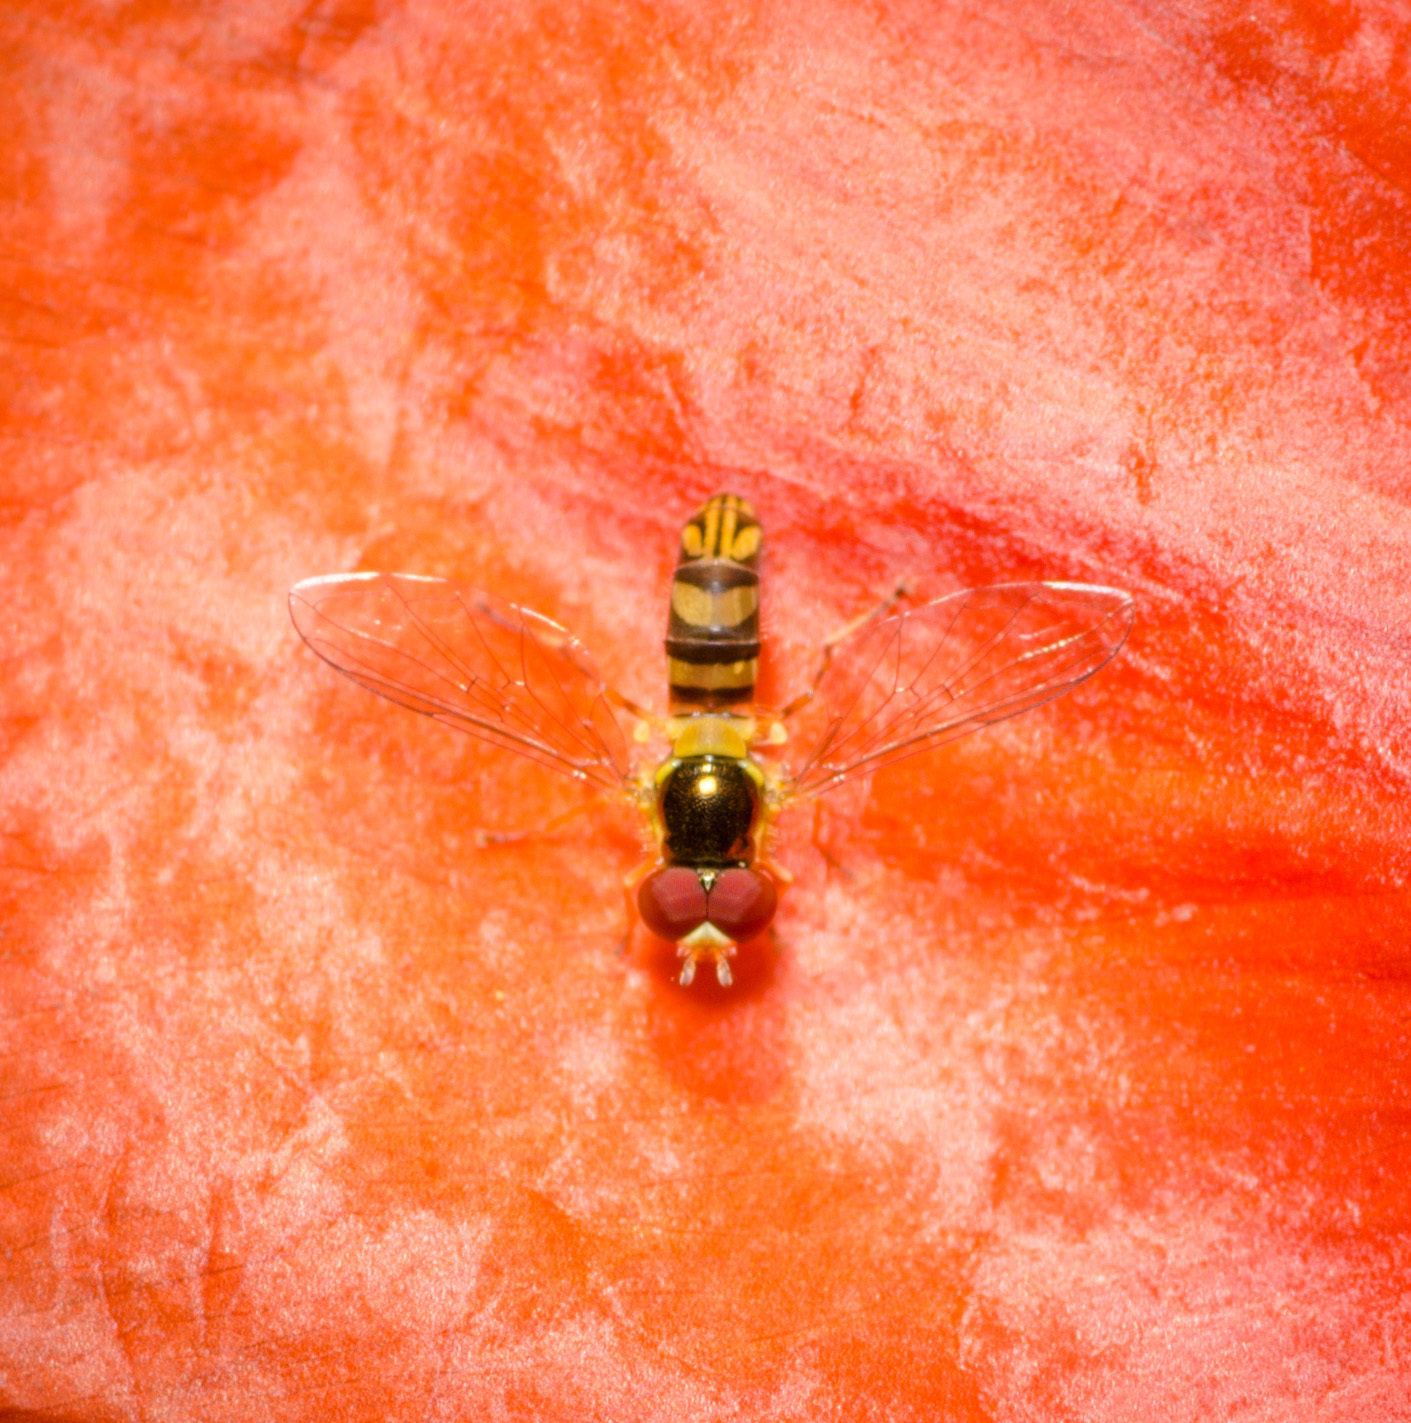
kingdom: Animalia
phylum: Arthropoda
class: Insecta
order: Diptera
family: Syrphidae
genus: Allograpta
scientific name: Allograpta obliqua
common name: Common oblique syrphid
